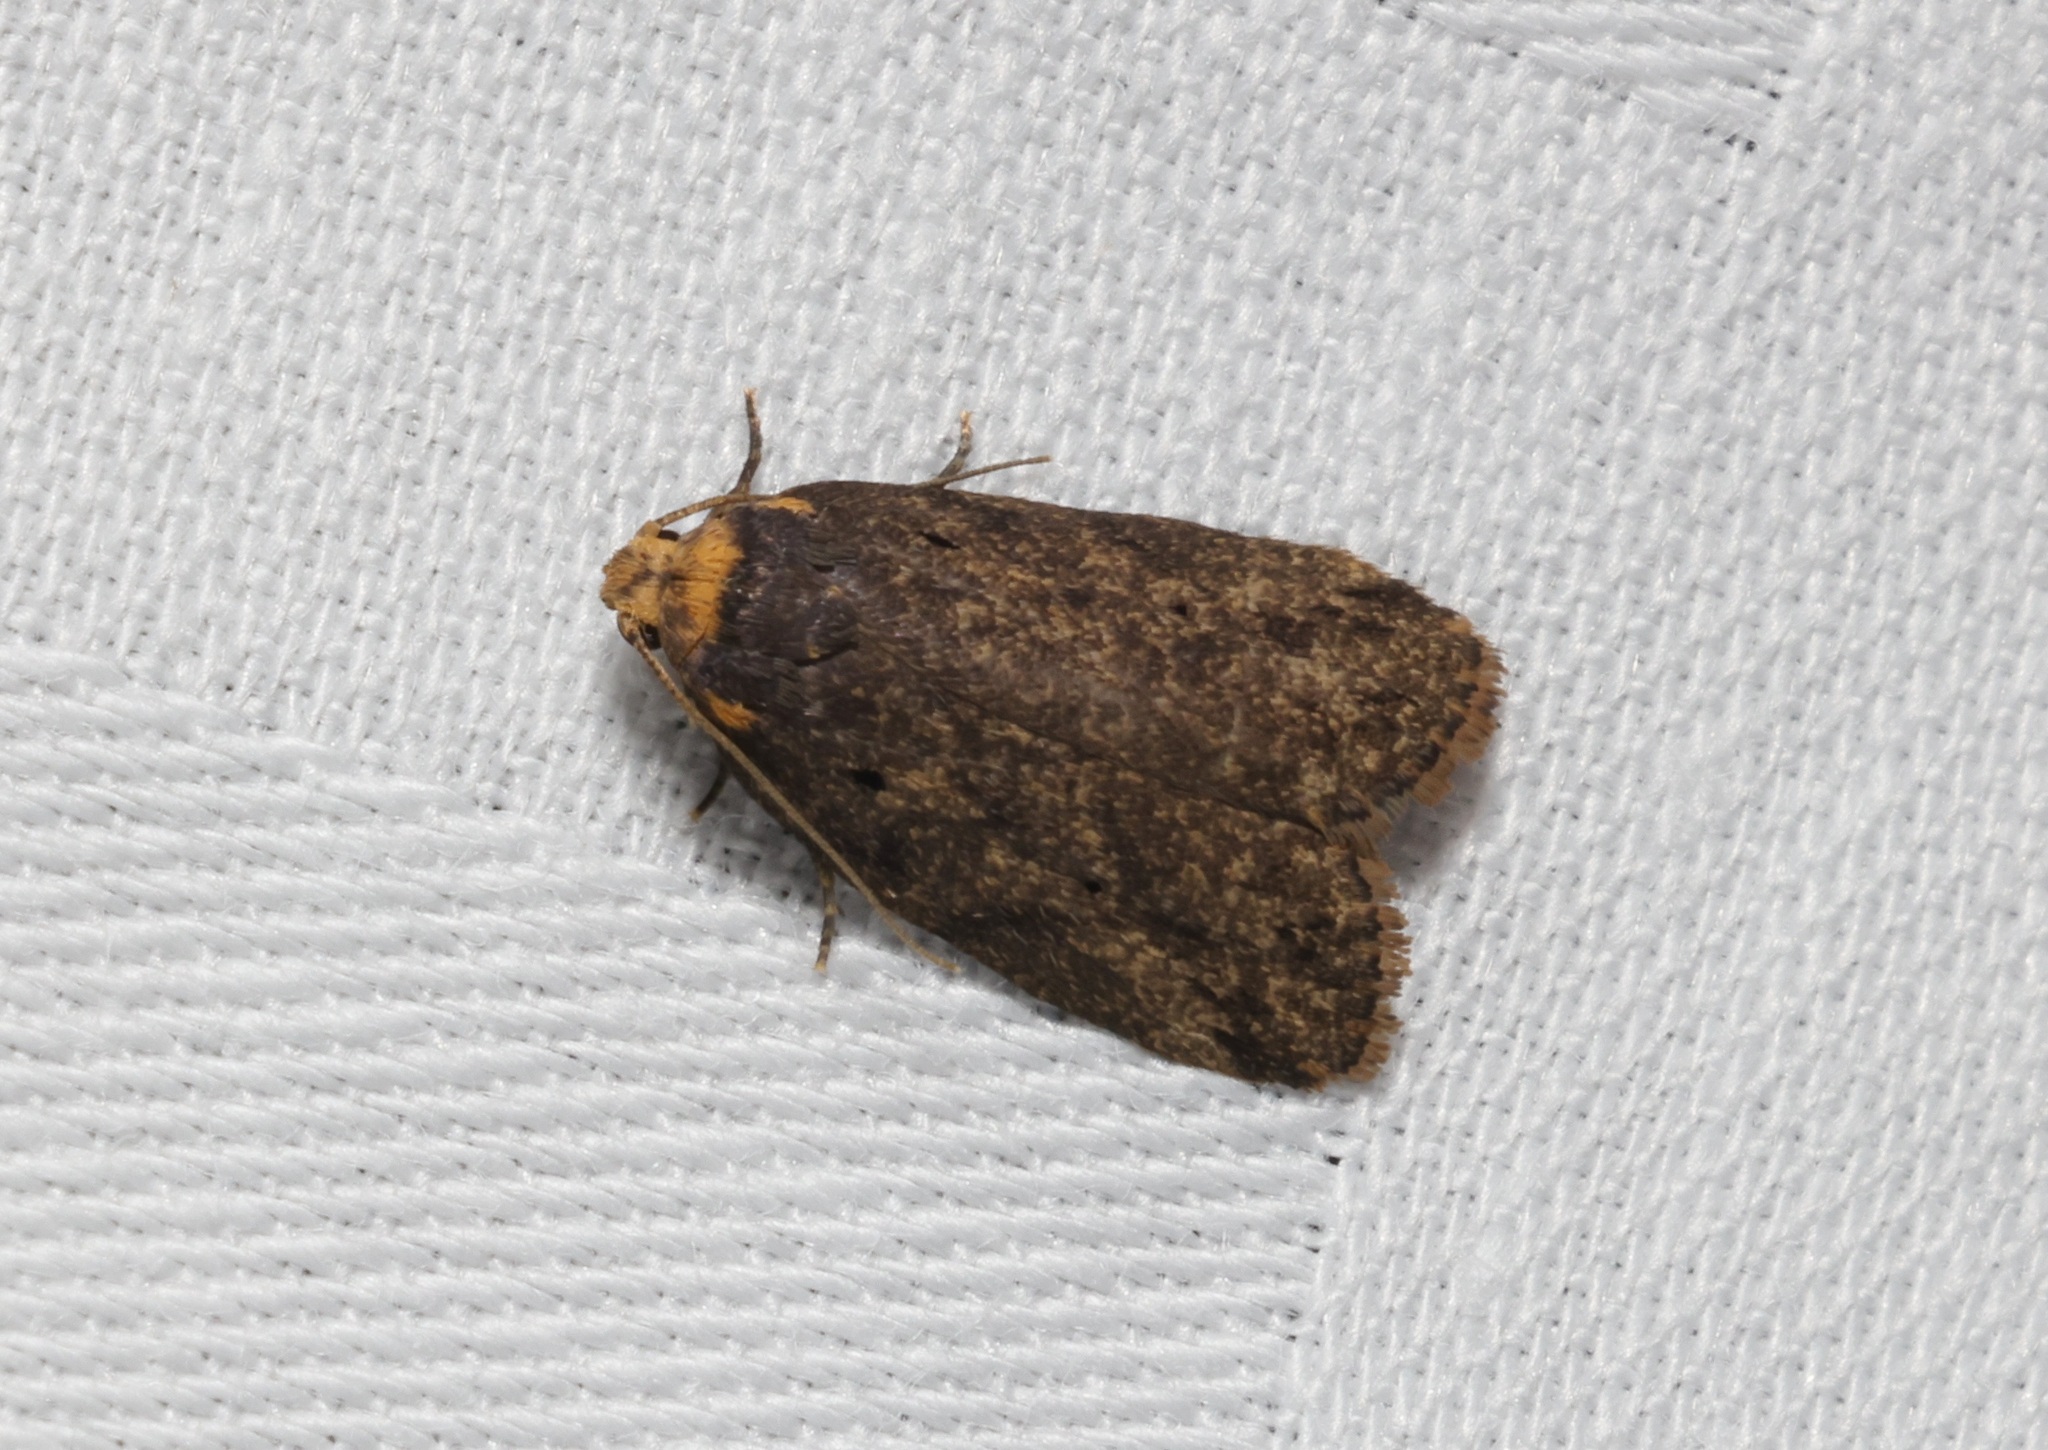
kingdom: Animalia
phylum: Arthropoda
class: Insecta
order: Lepidoptera
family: Erebidae
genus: Eugoa
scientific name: Eugoa brunnea
